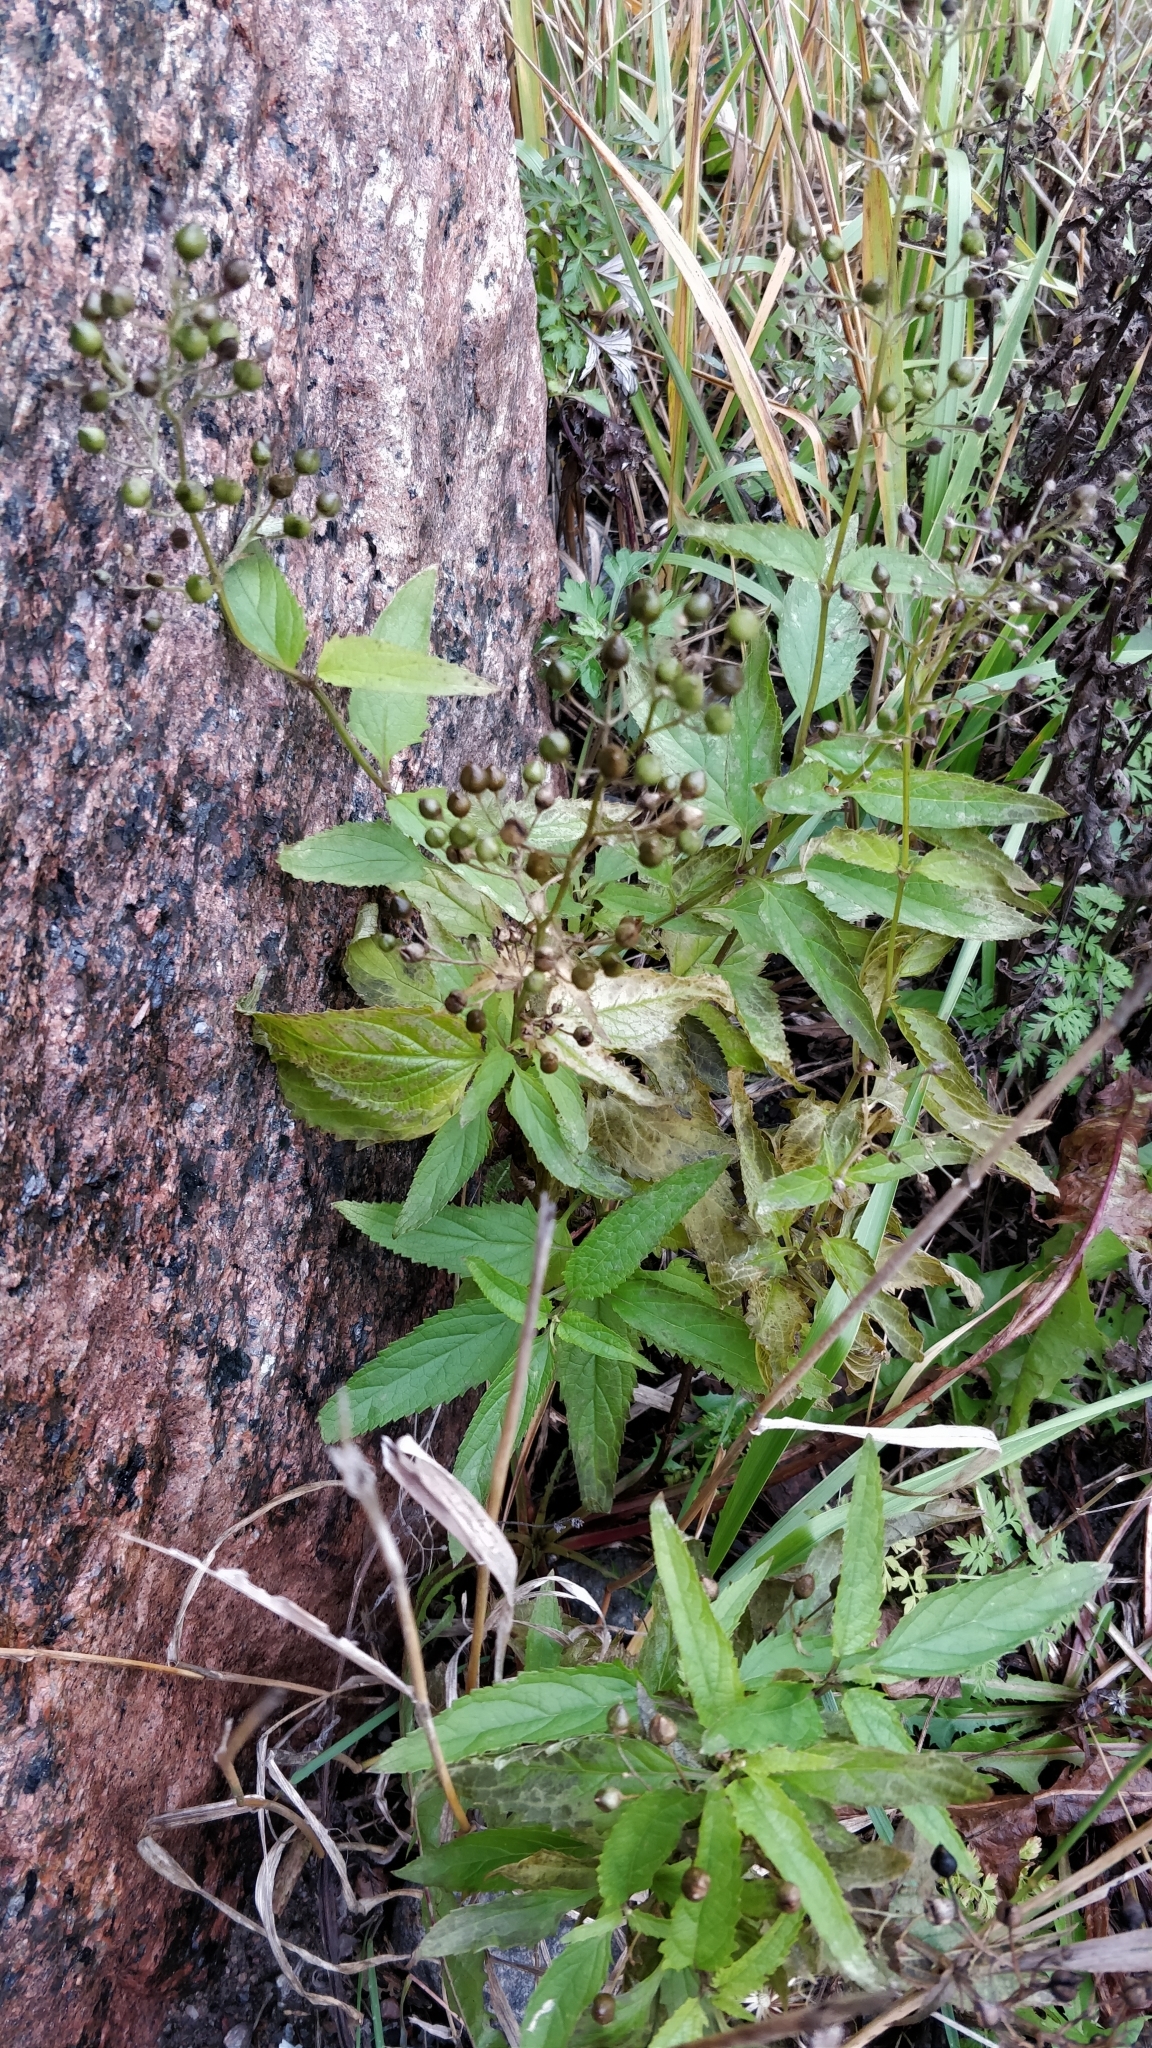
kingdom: Plantae
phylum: Tracheophyta
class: Magnoliopsida
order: Lamiales
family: Scrophulariaceae
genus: Scrophularia
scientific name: Scrophularia nodosa
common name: Common figwort
